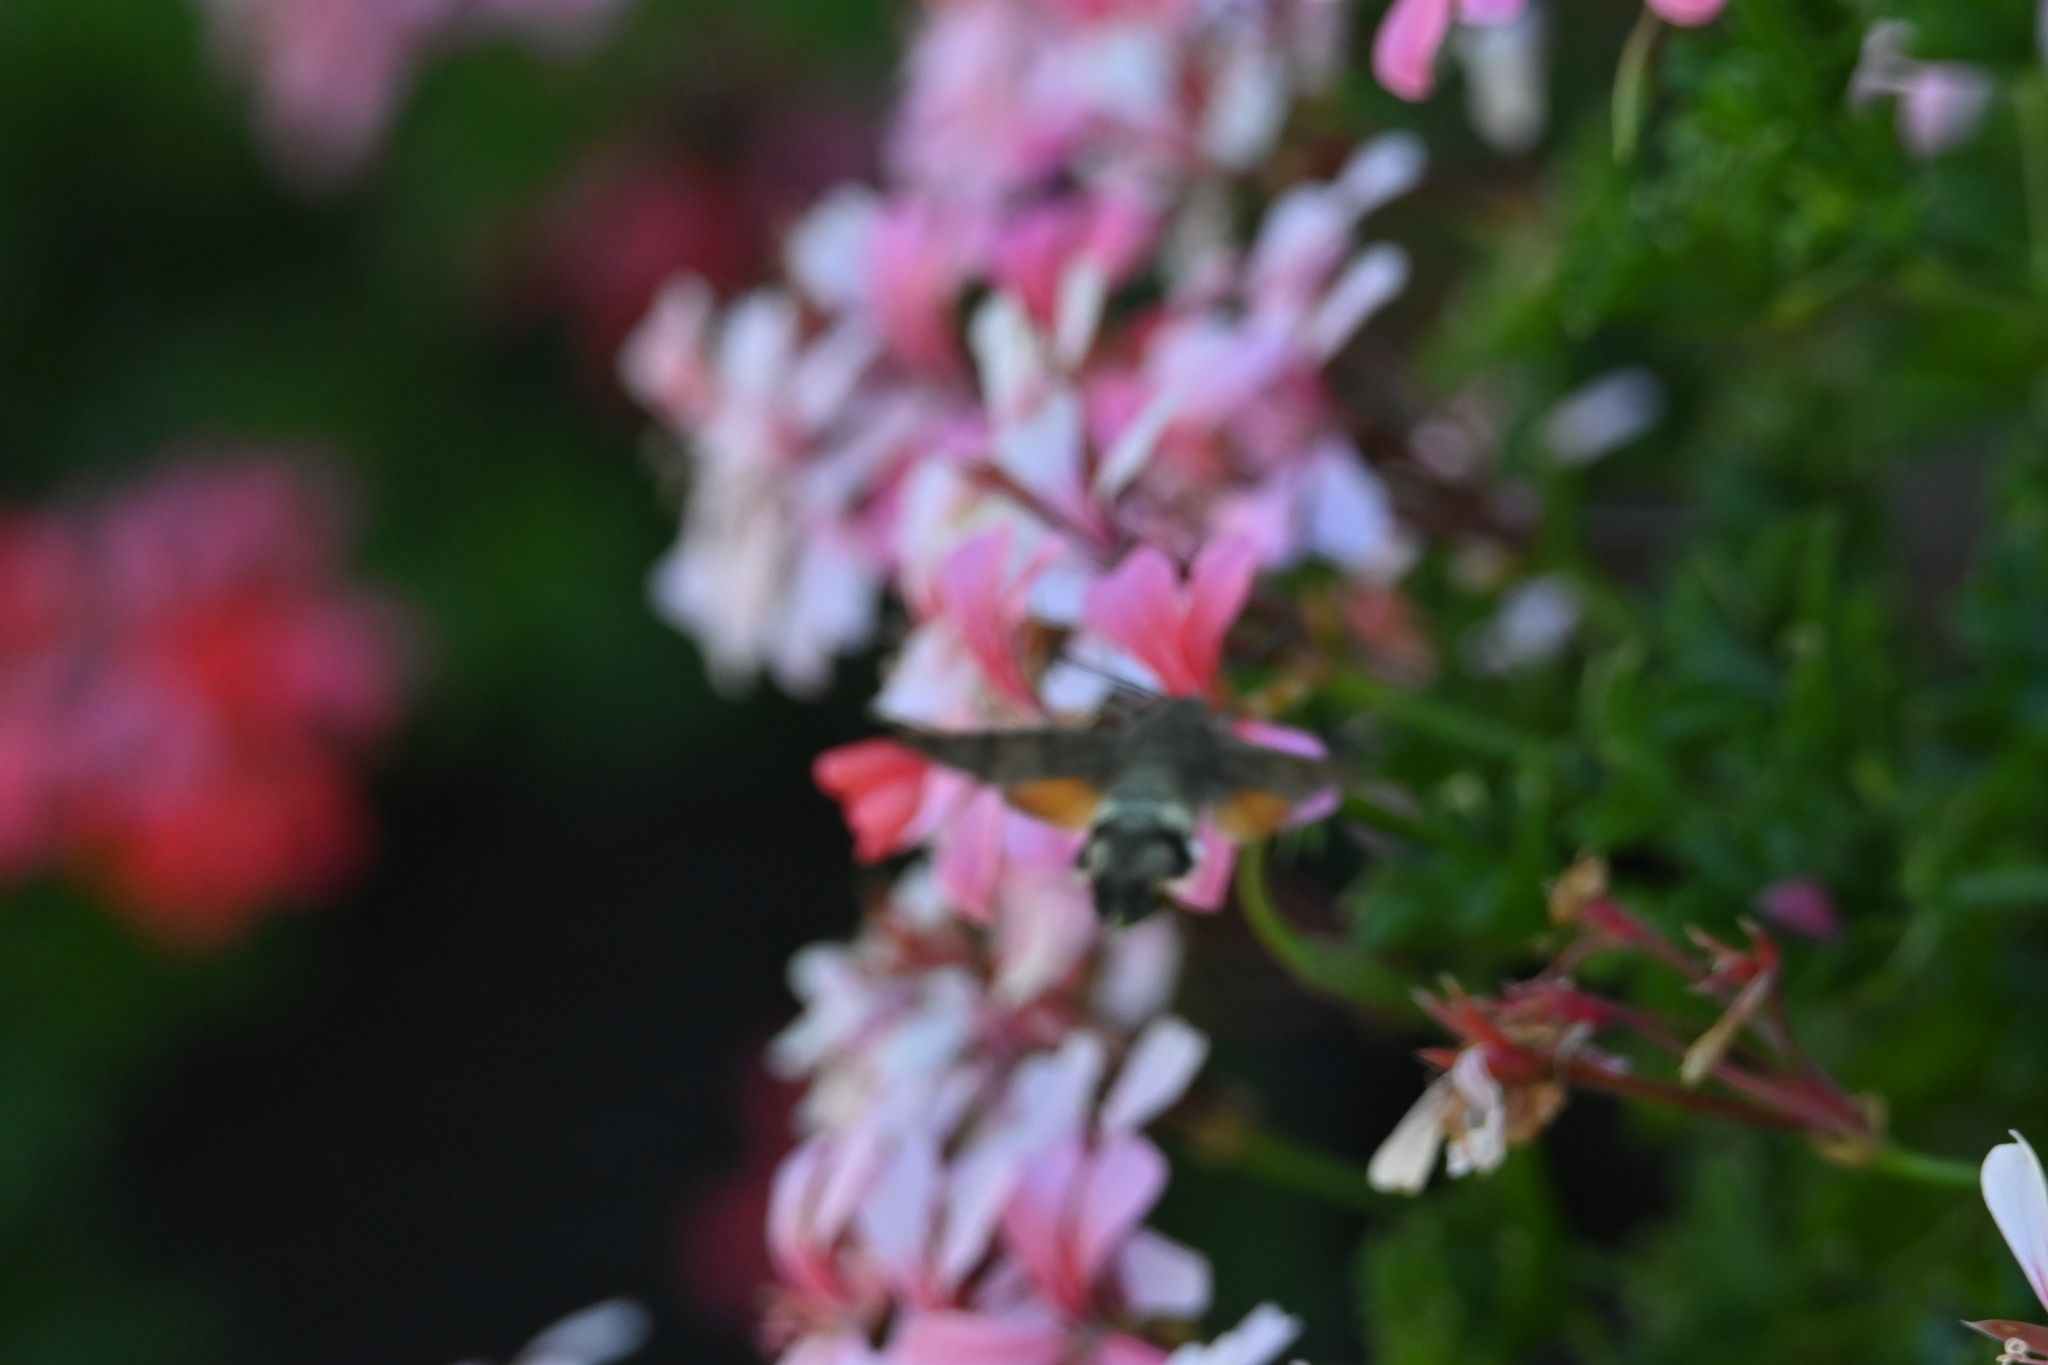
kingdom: Animalia
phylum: Arthropoda
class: Insecta
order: Lepidoptera
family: Sphingidae
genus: Macroglossum
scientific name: Macroglossum stellatarum
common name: Humming-bird hawk-moth
